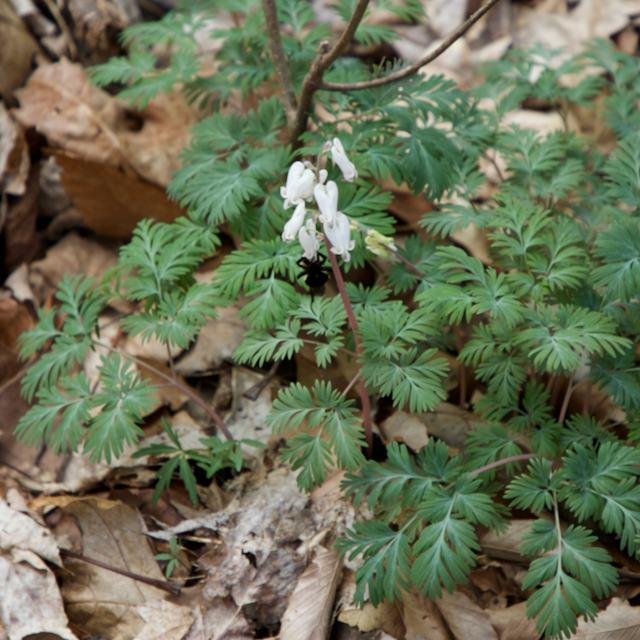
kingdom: Plantae
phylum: Tracheophyta
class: Magnoliopsida
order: Ranunculales
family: Papaveraceae
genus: Dicentra
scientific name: Dicentra canadensis
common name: Squirrel-corn
